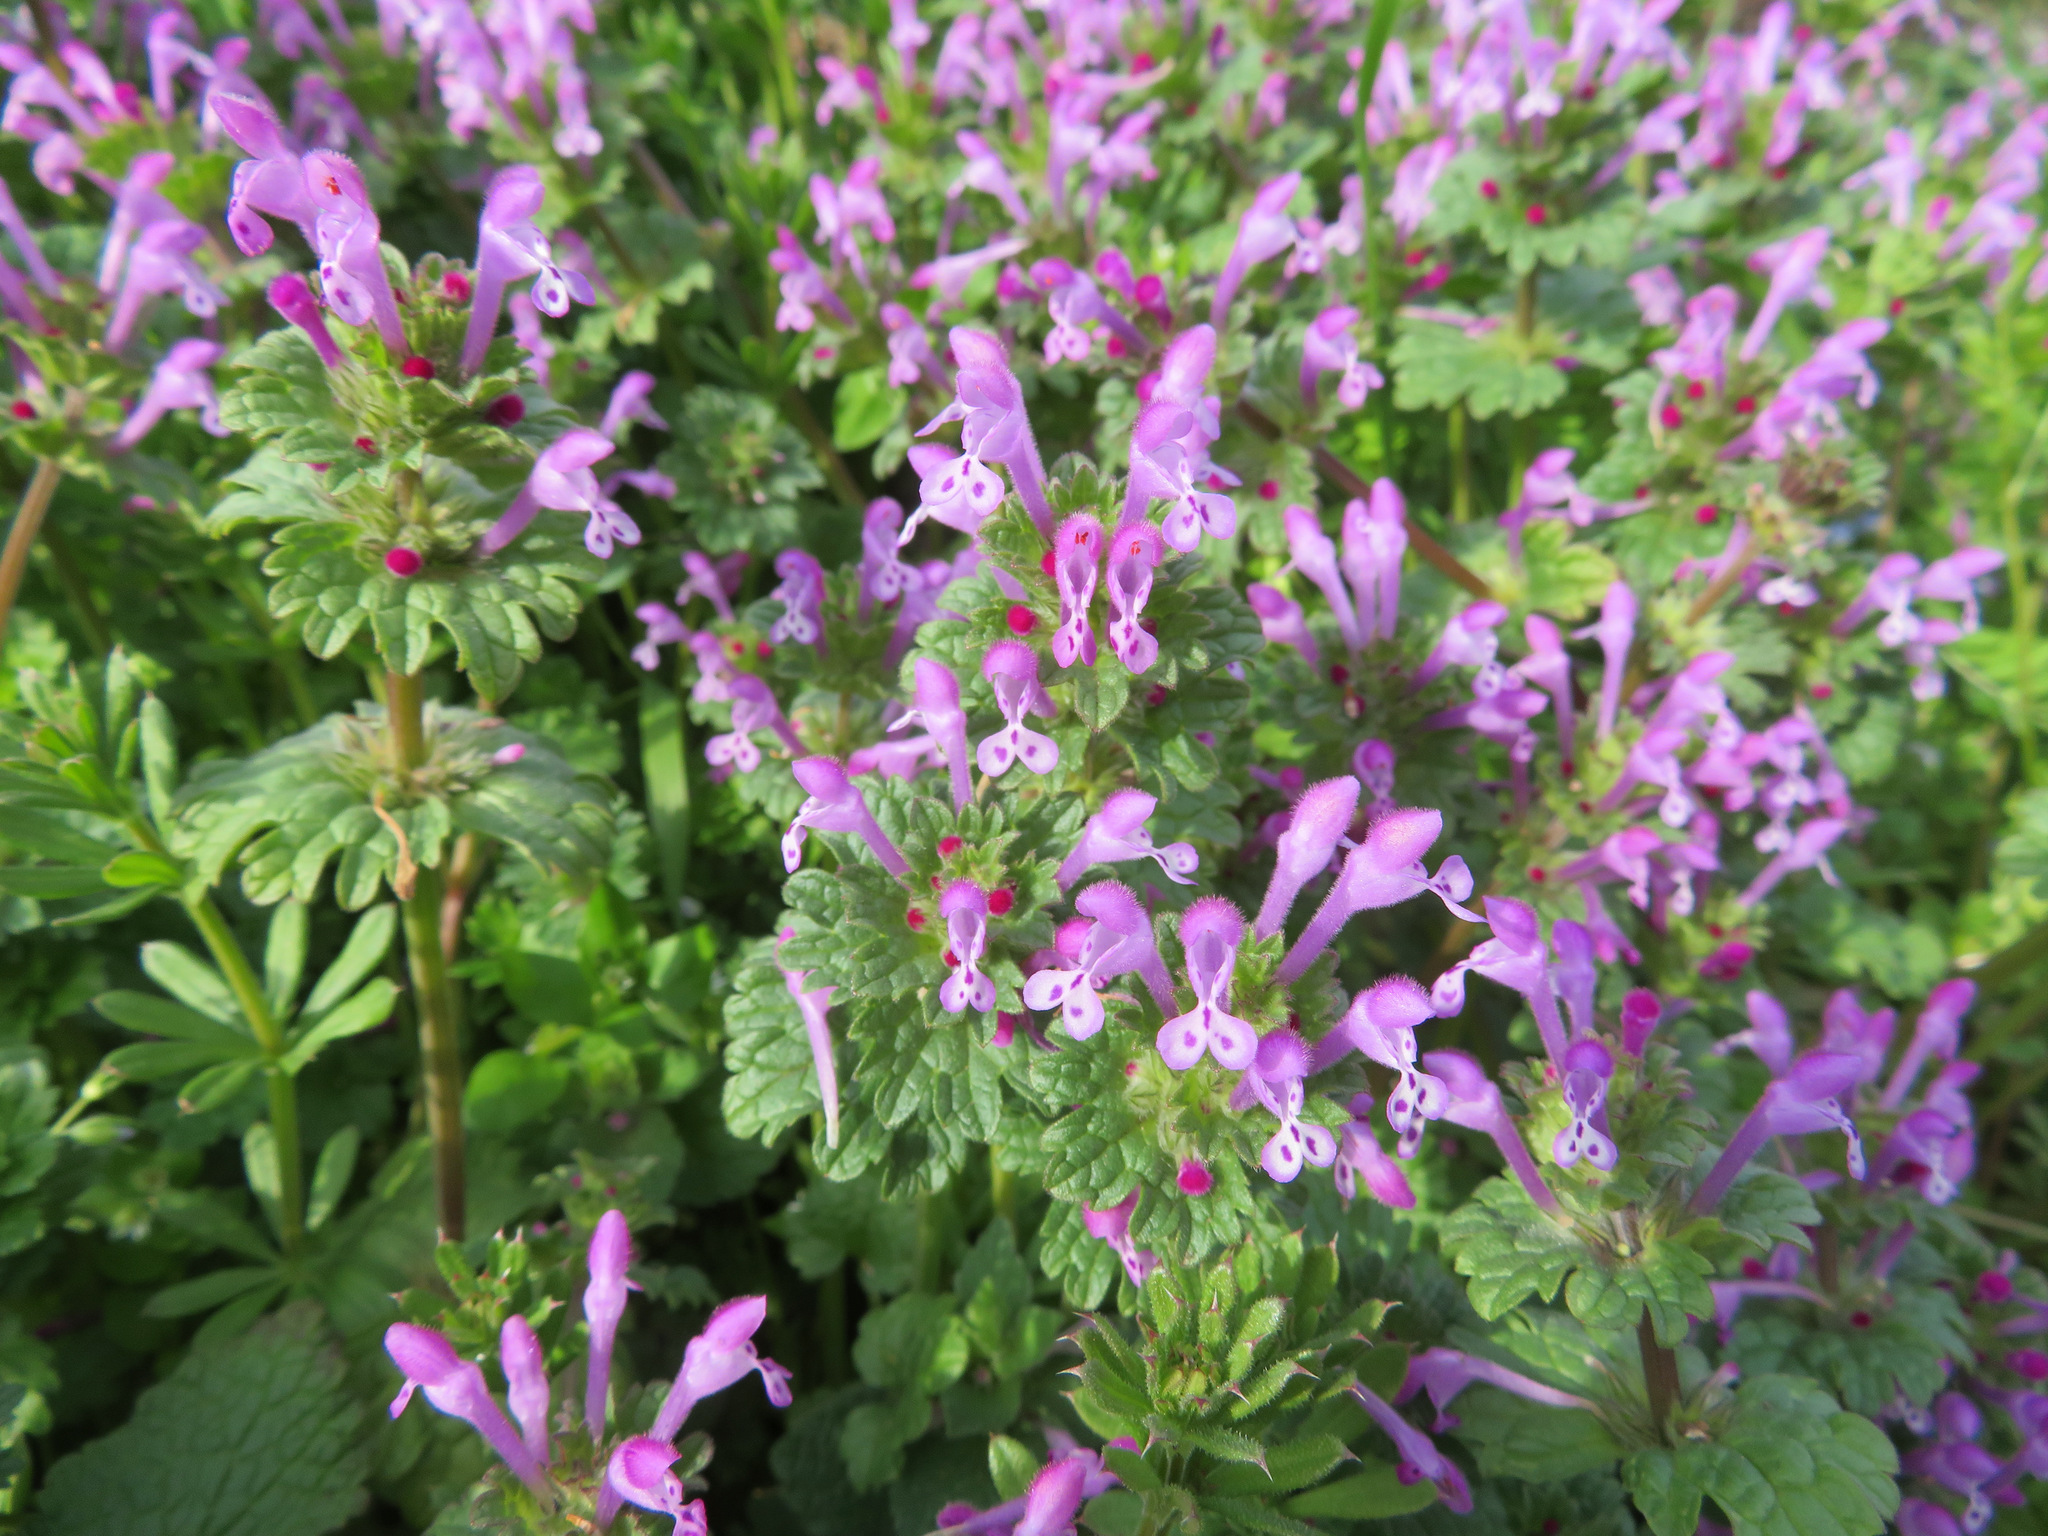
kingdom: Plantae
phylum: Tracheophyta
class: Magnoliopsida
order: Lamiales
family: Lamiaceae
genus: Lamium
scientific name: Lamium amplexicaule
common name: Henbit dead-nettle
